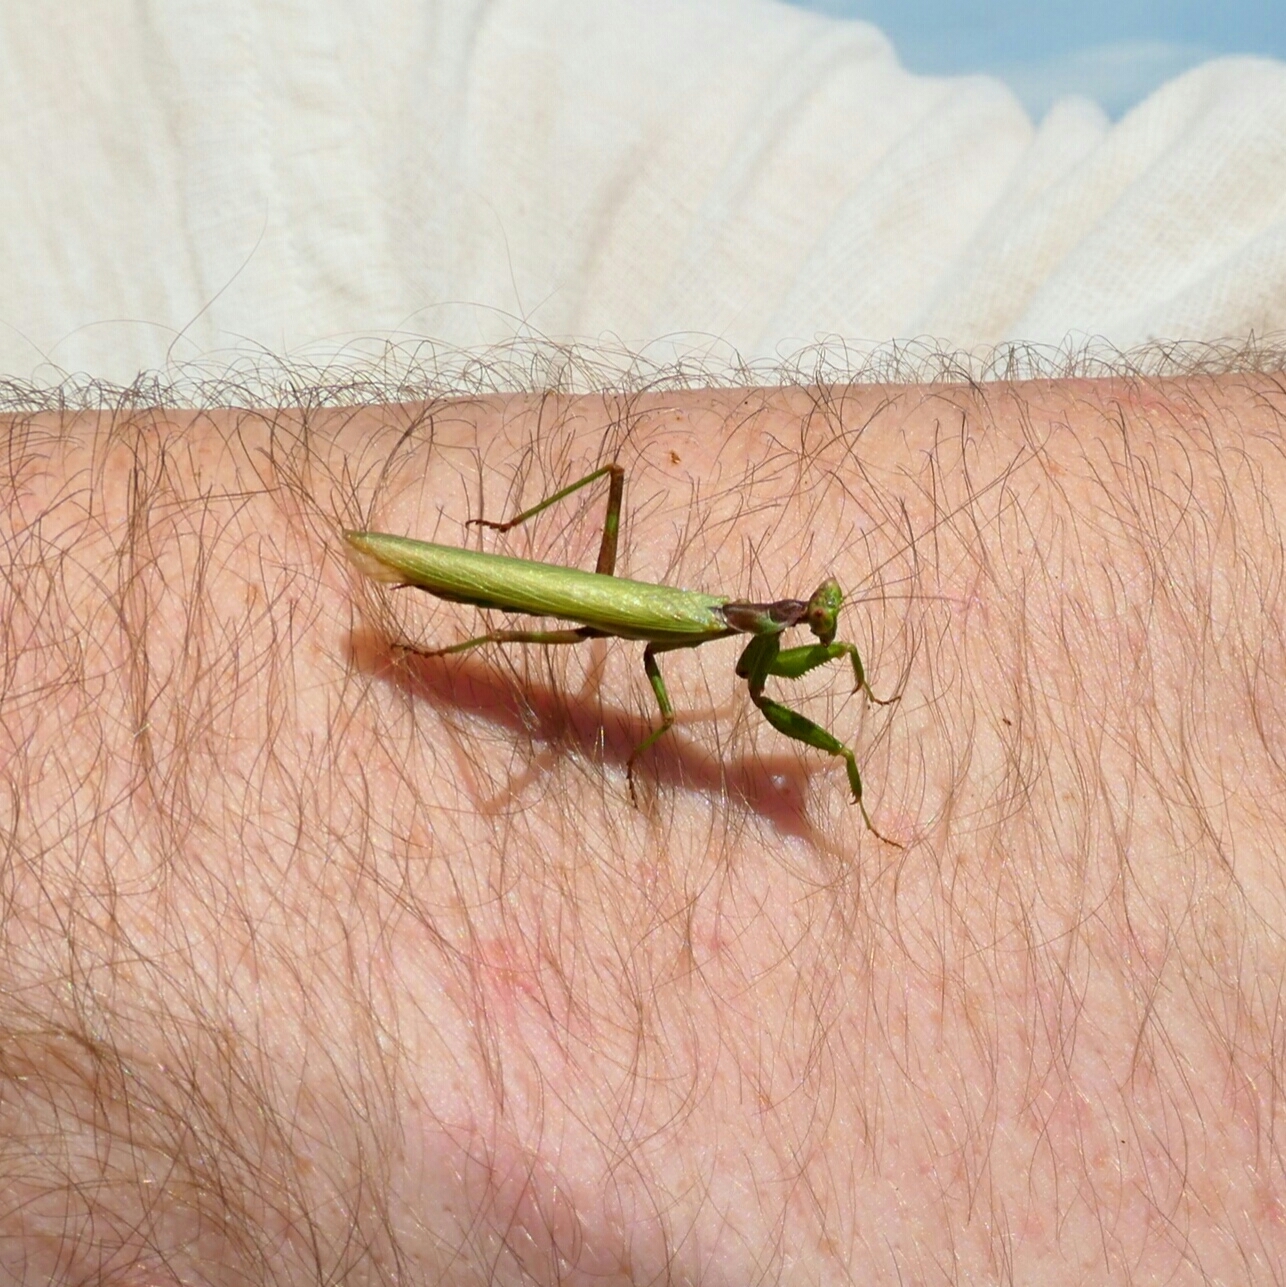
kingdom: Animalia
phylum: Arthropoda
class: Insecta
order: Mantodea
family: Amelidae
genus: Ameles
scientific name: Ameles spallanzania
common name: European dwarf mantis
